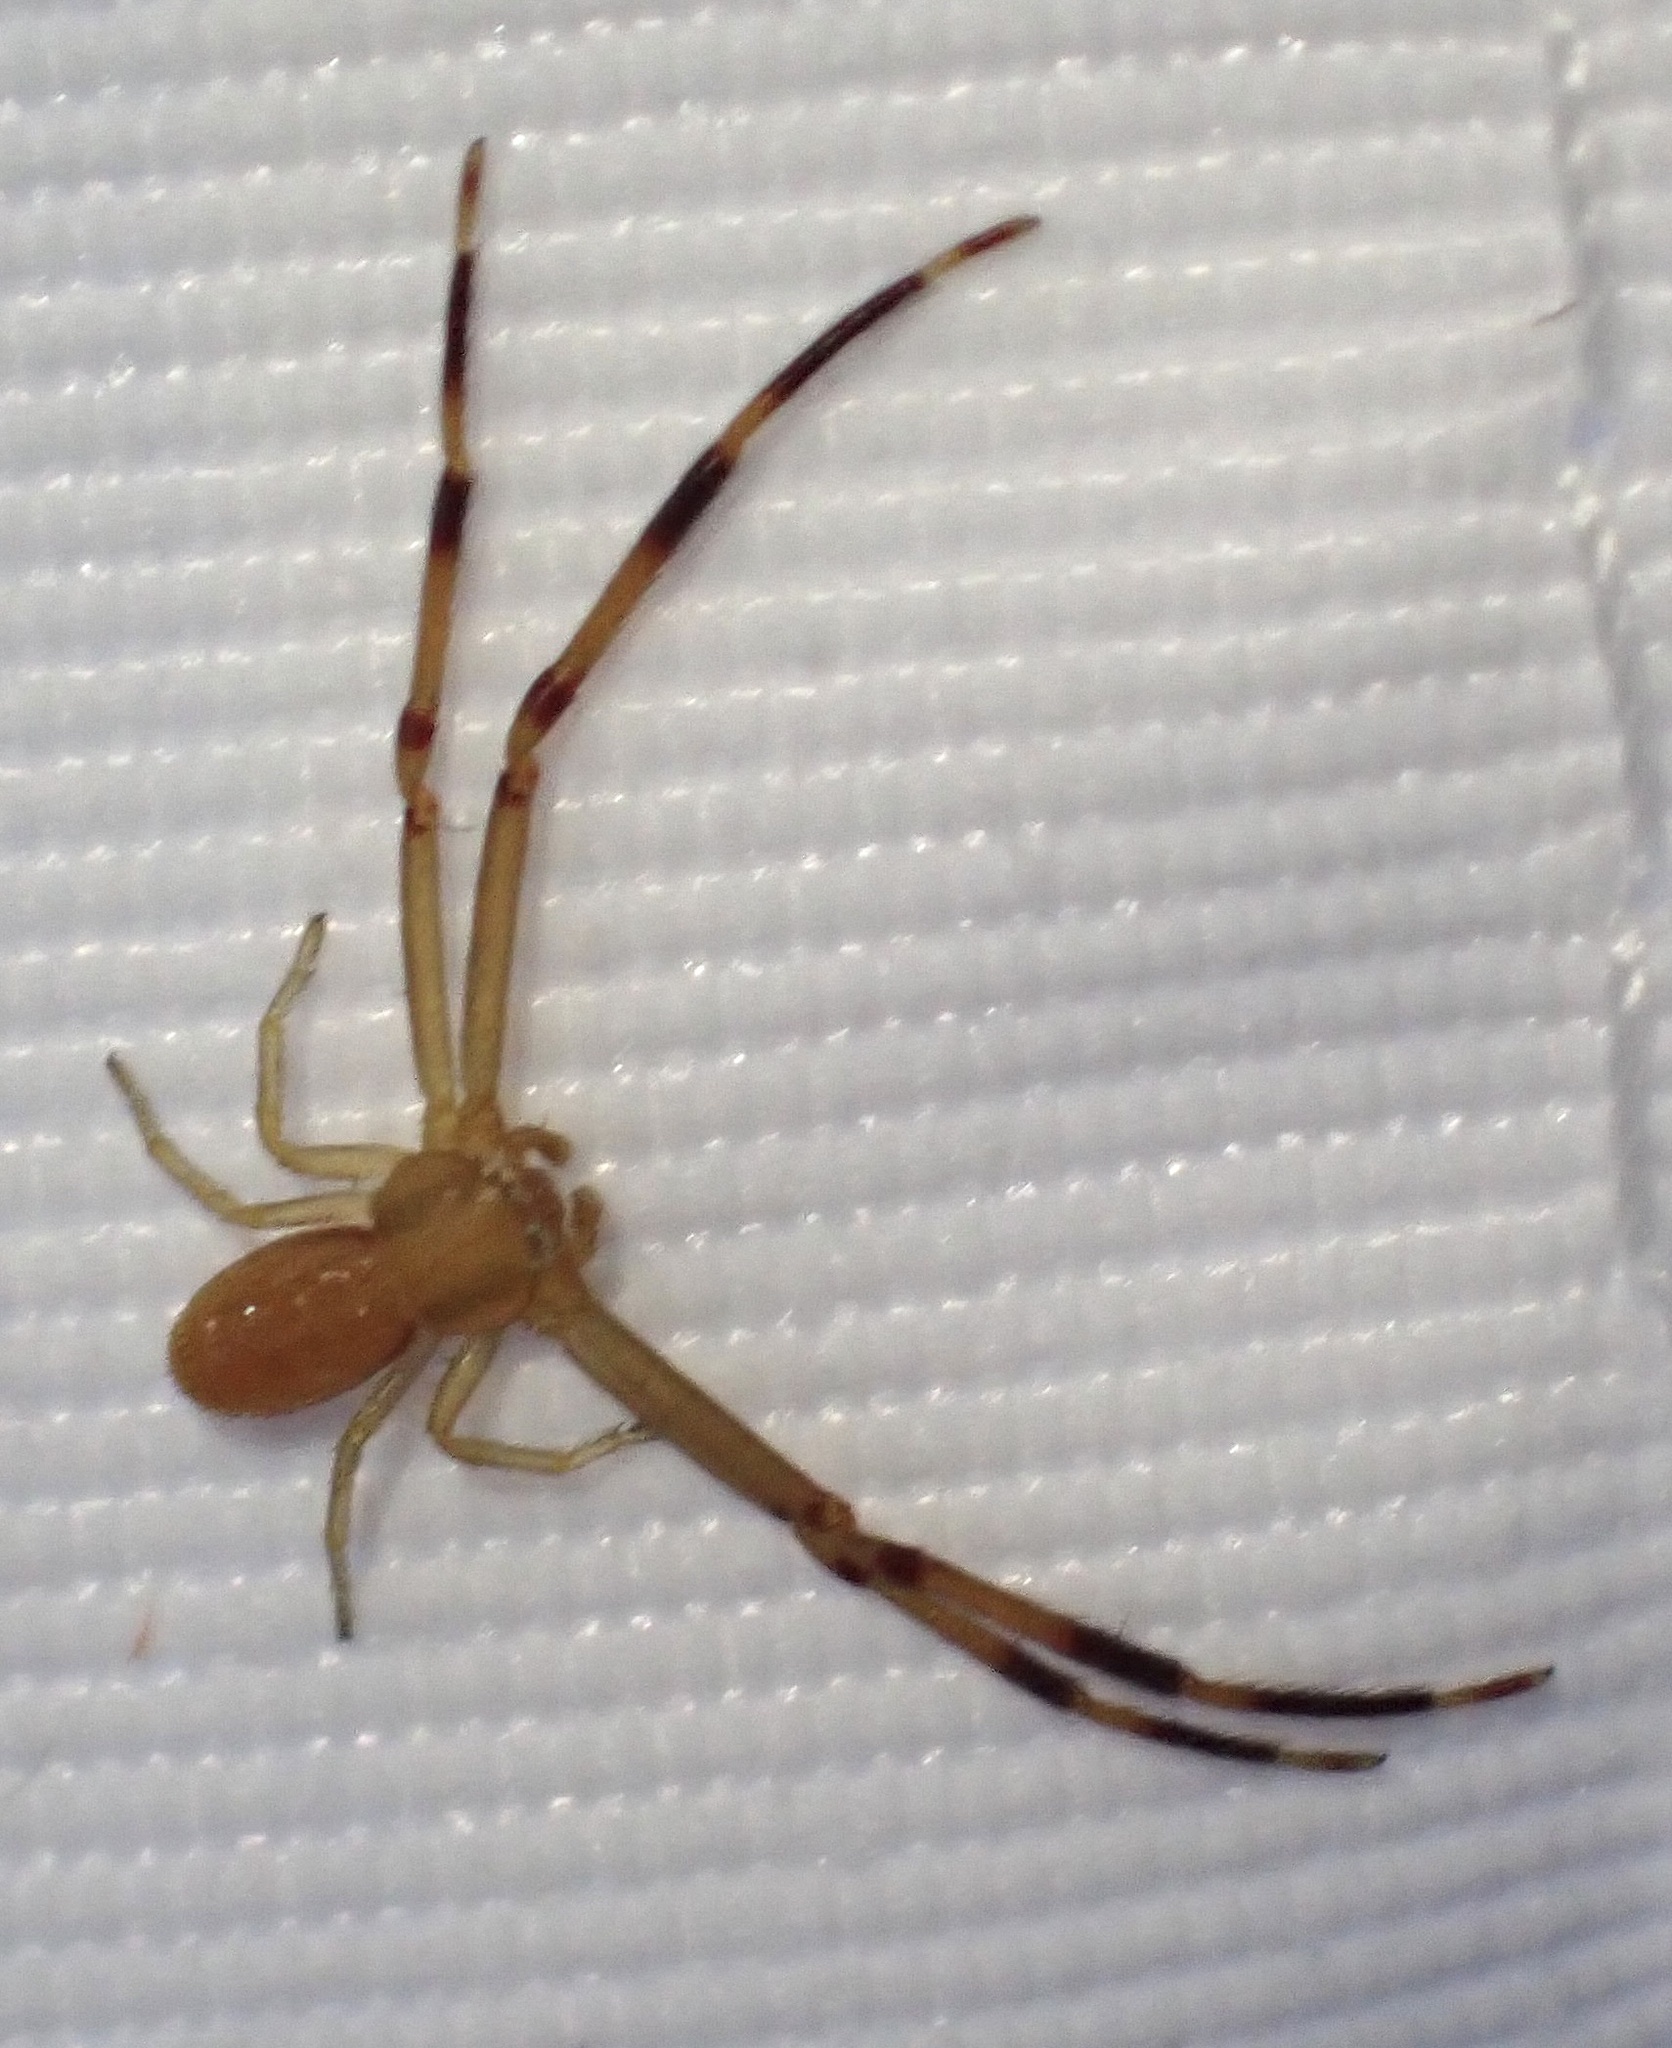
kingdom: Animalia
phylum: Arthropoda
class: Arachnida
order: Araneae
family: Thomisidae
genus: Runcinia
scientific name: Runcinia grammica
